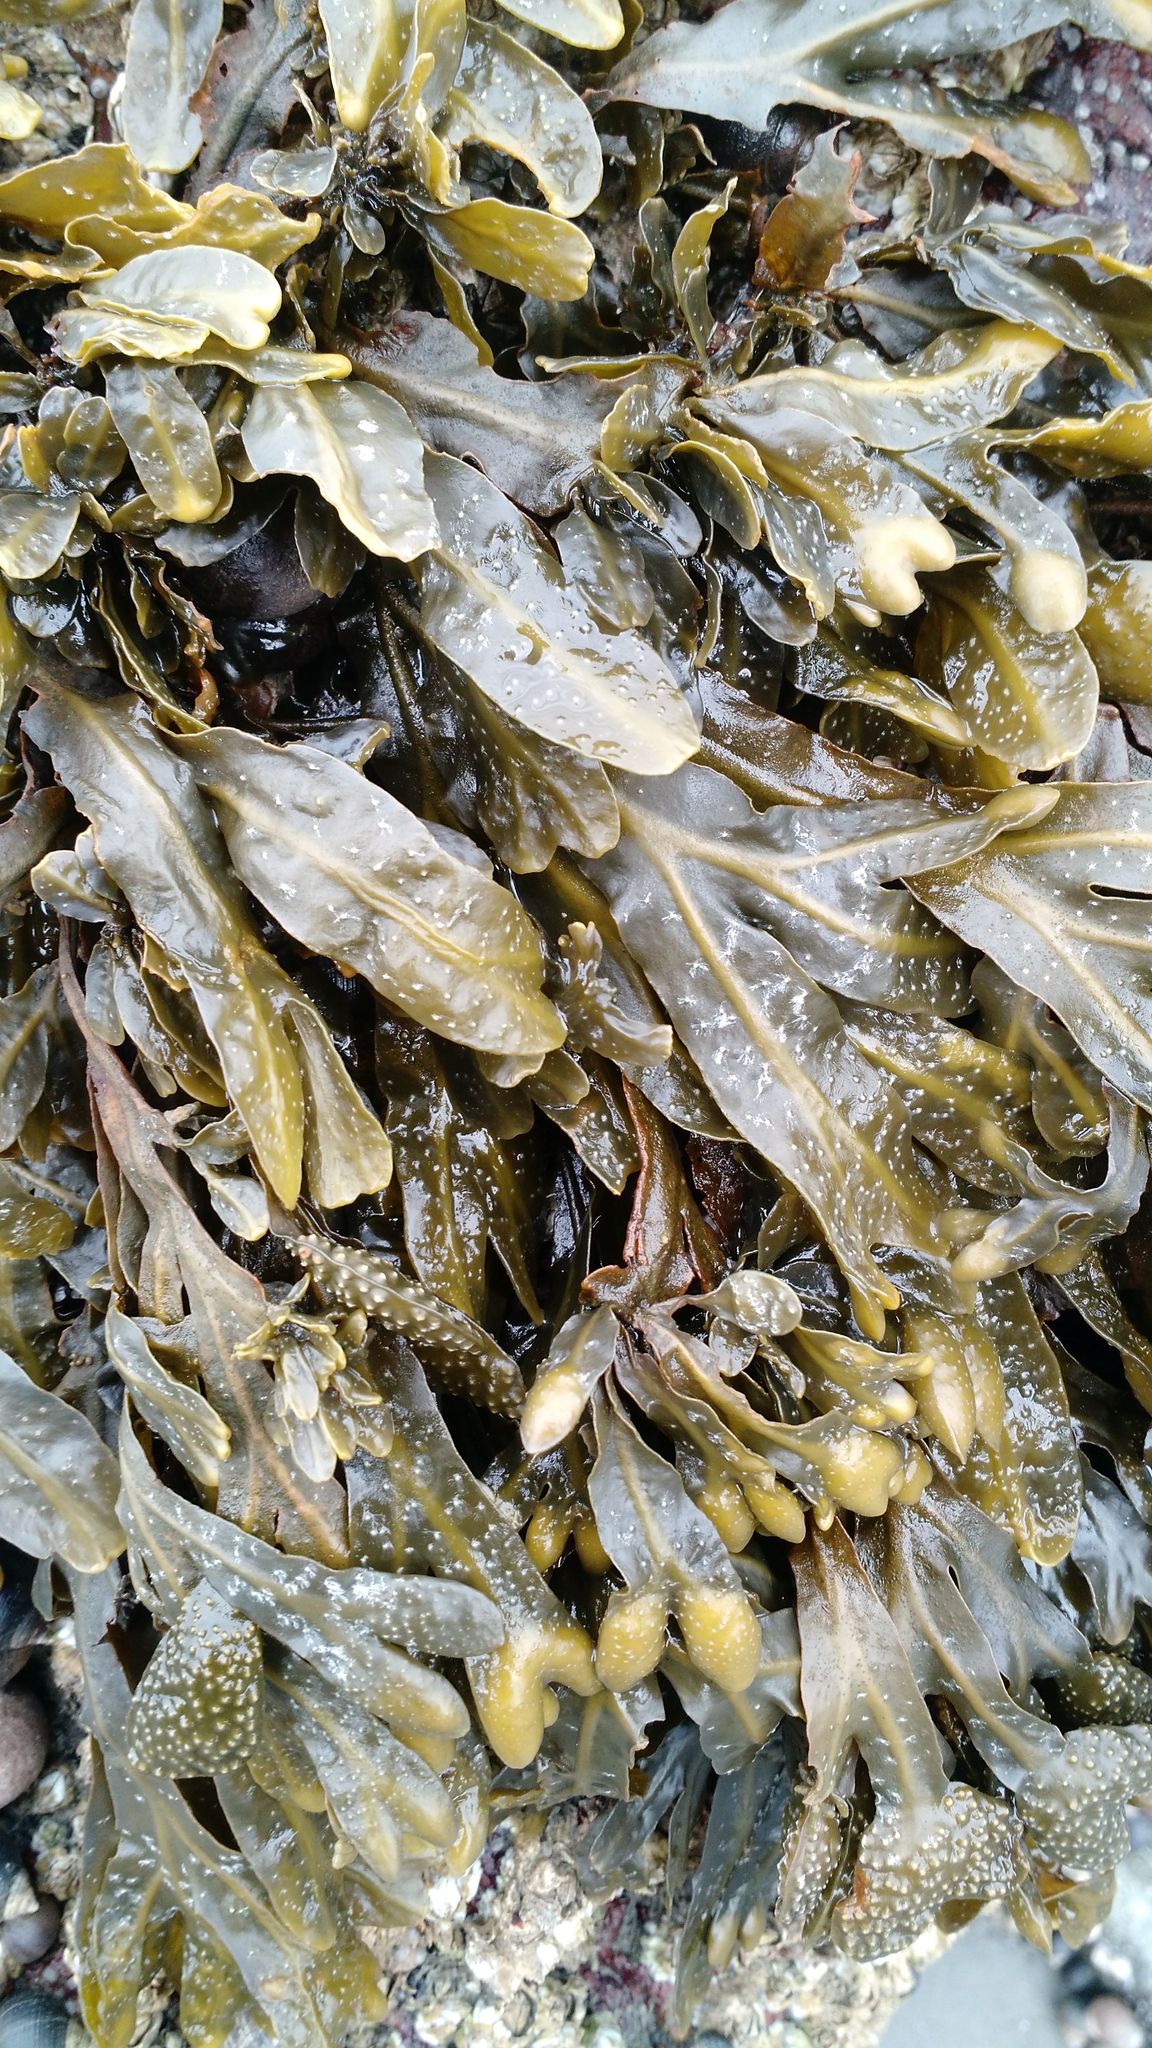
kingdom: Chromista
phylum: Ochrophyta
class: Phaeophyceae
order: Fucales
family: Fucaceae
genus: Fucus
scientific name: Fucus distichus
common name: Rockweed
